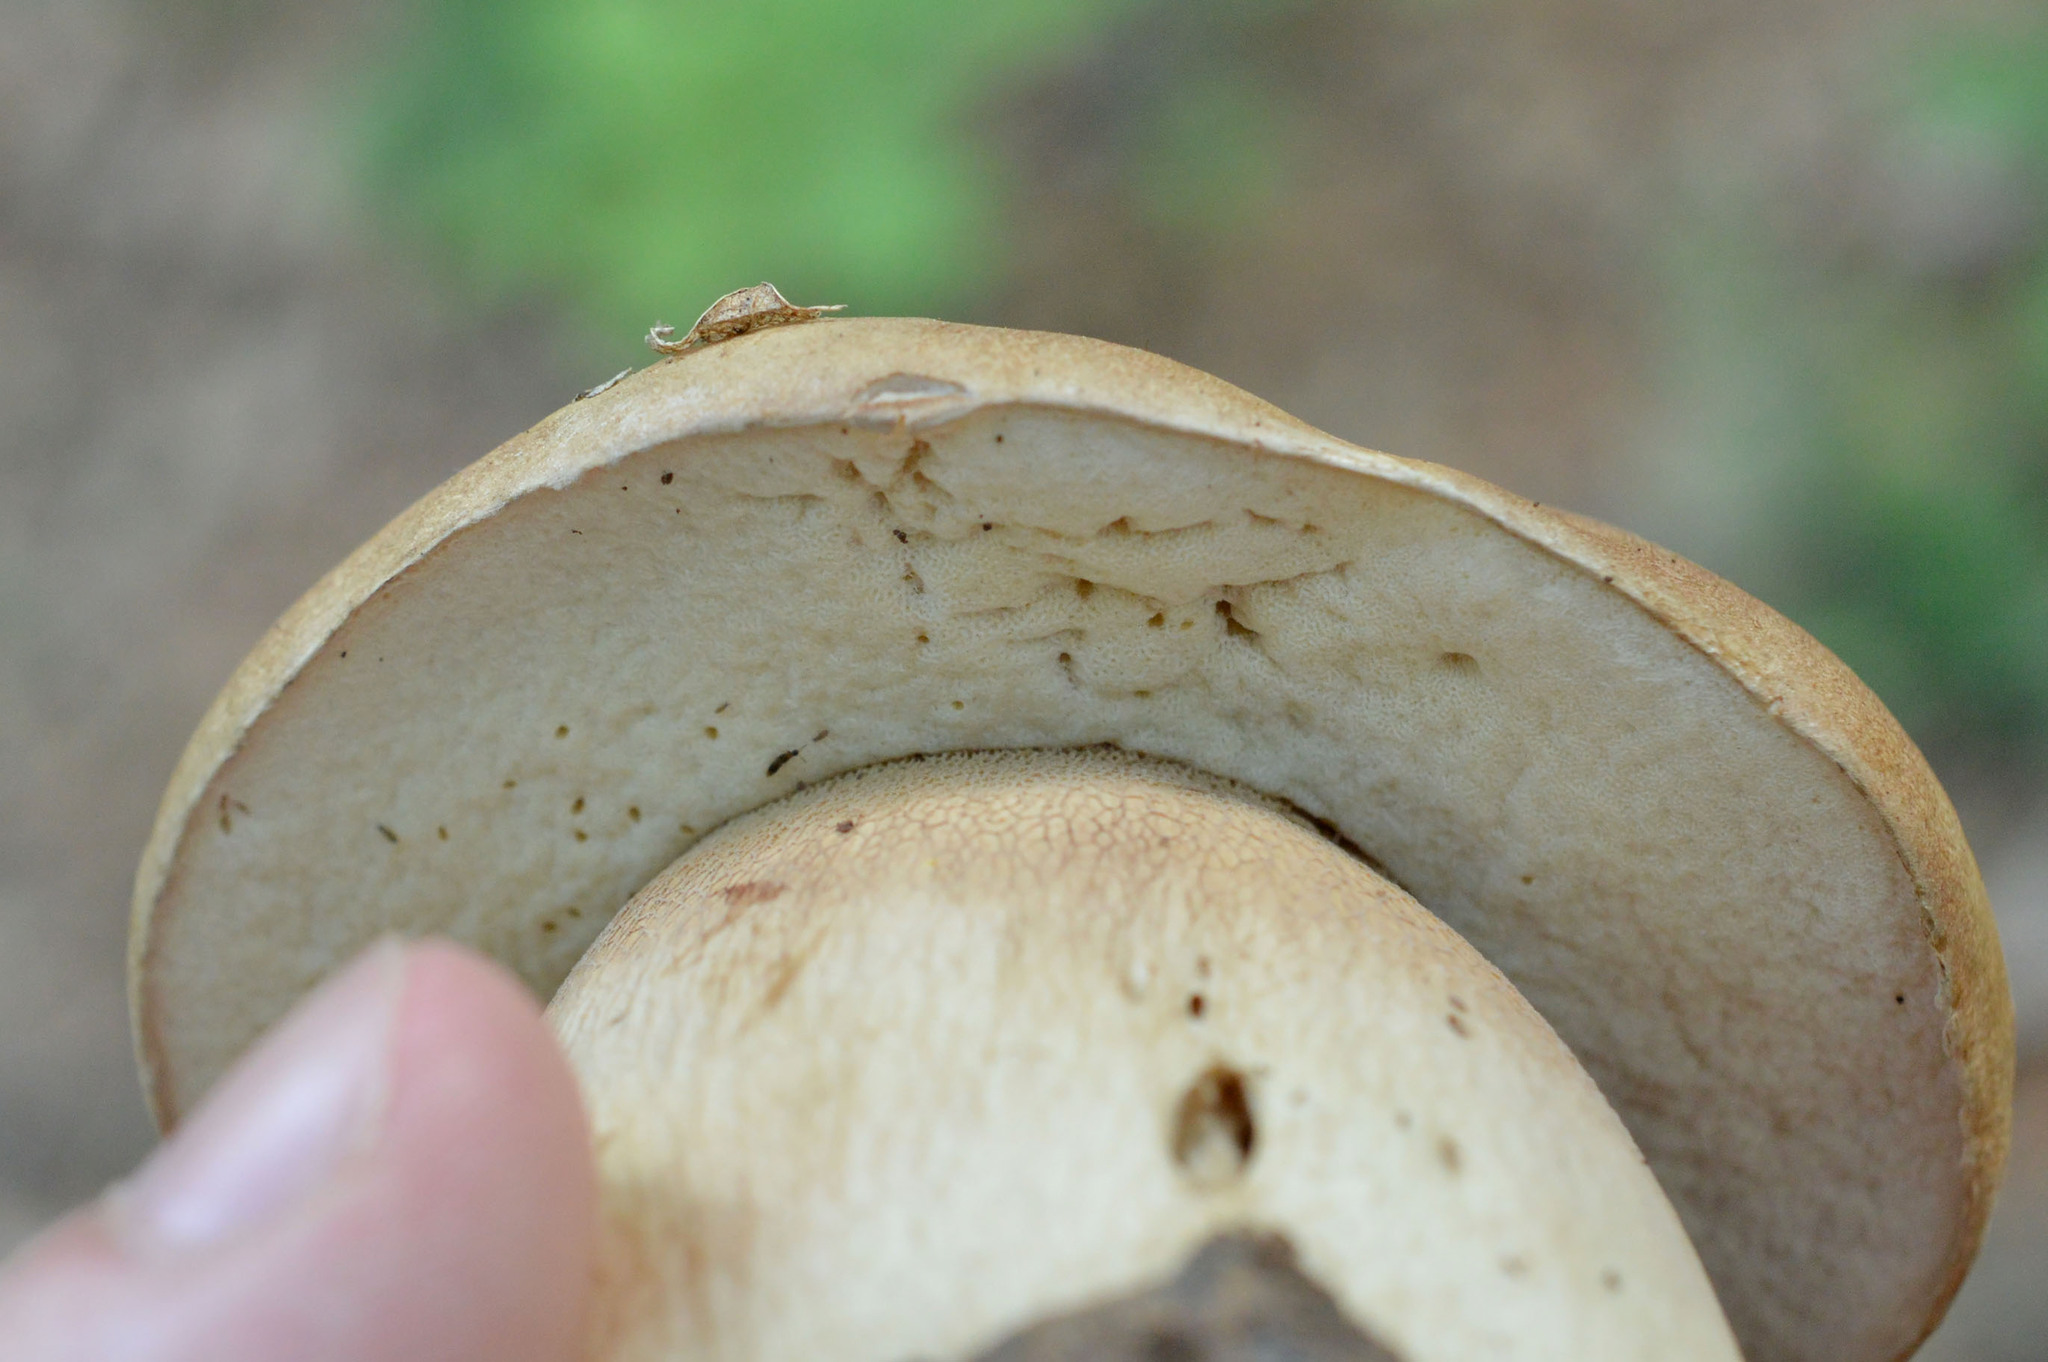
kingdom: Fungi
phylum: Basidiomycota
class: Agaricomycetes
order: Boletales
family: Boletaceae
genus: Boletus
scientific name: Boletus reticulatus
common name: Summer bolete
